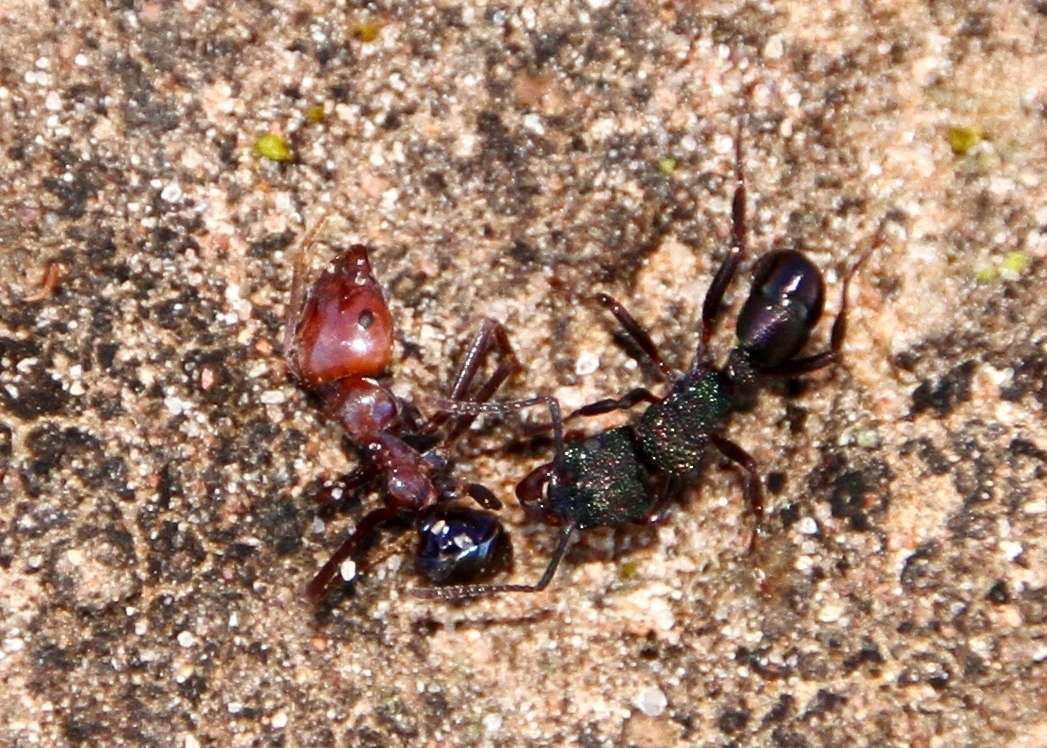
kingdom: Animalia
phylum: Arthropoda
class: Insecta
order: Hymenoptera
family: Formicidae
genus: Rhytidoponera
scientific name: Rhytidoponera metallica
